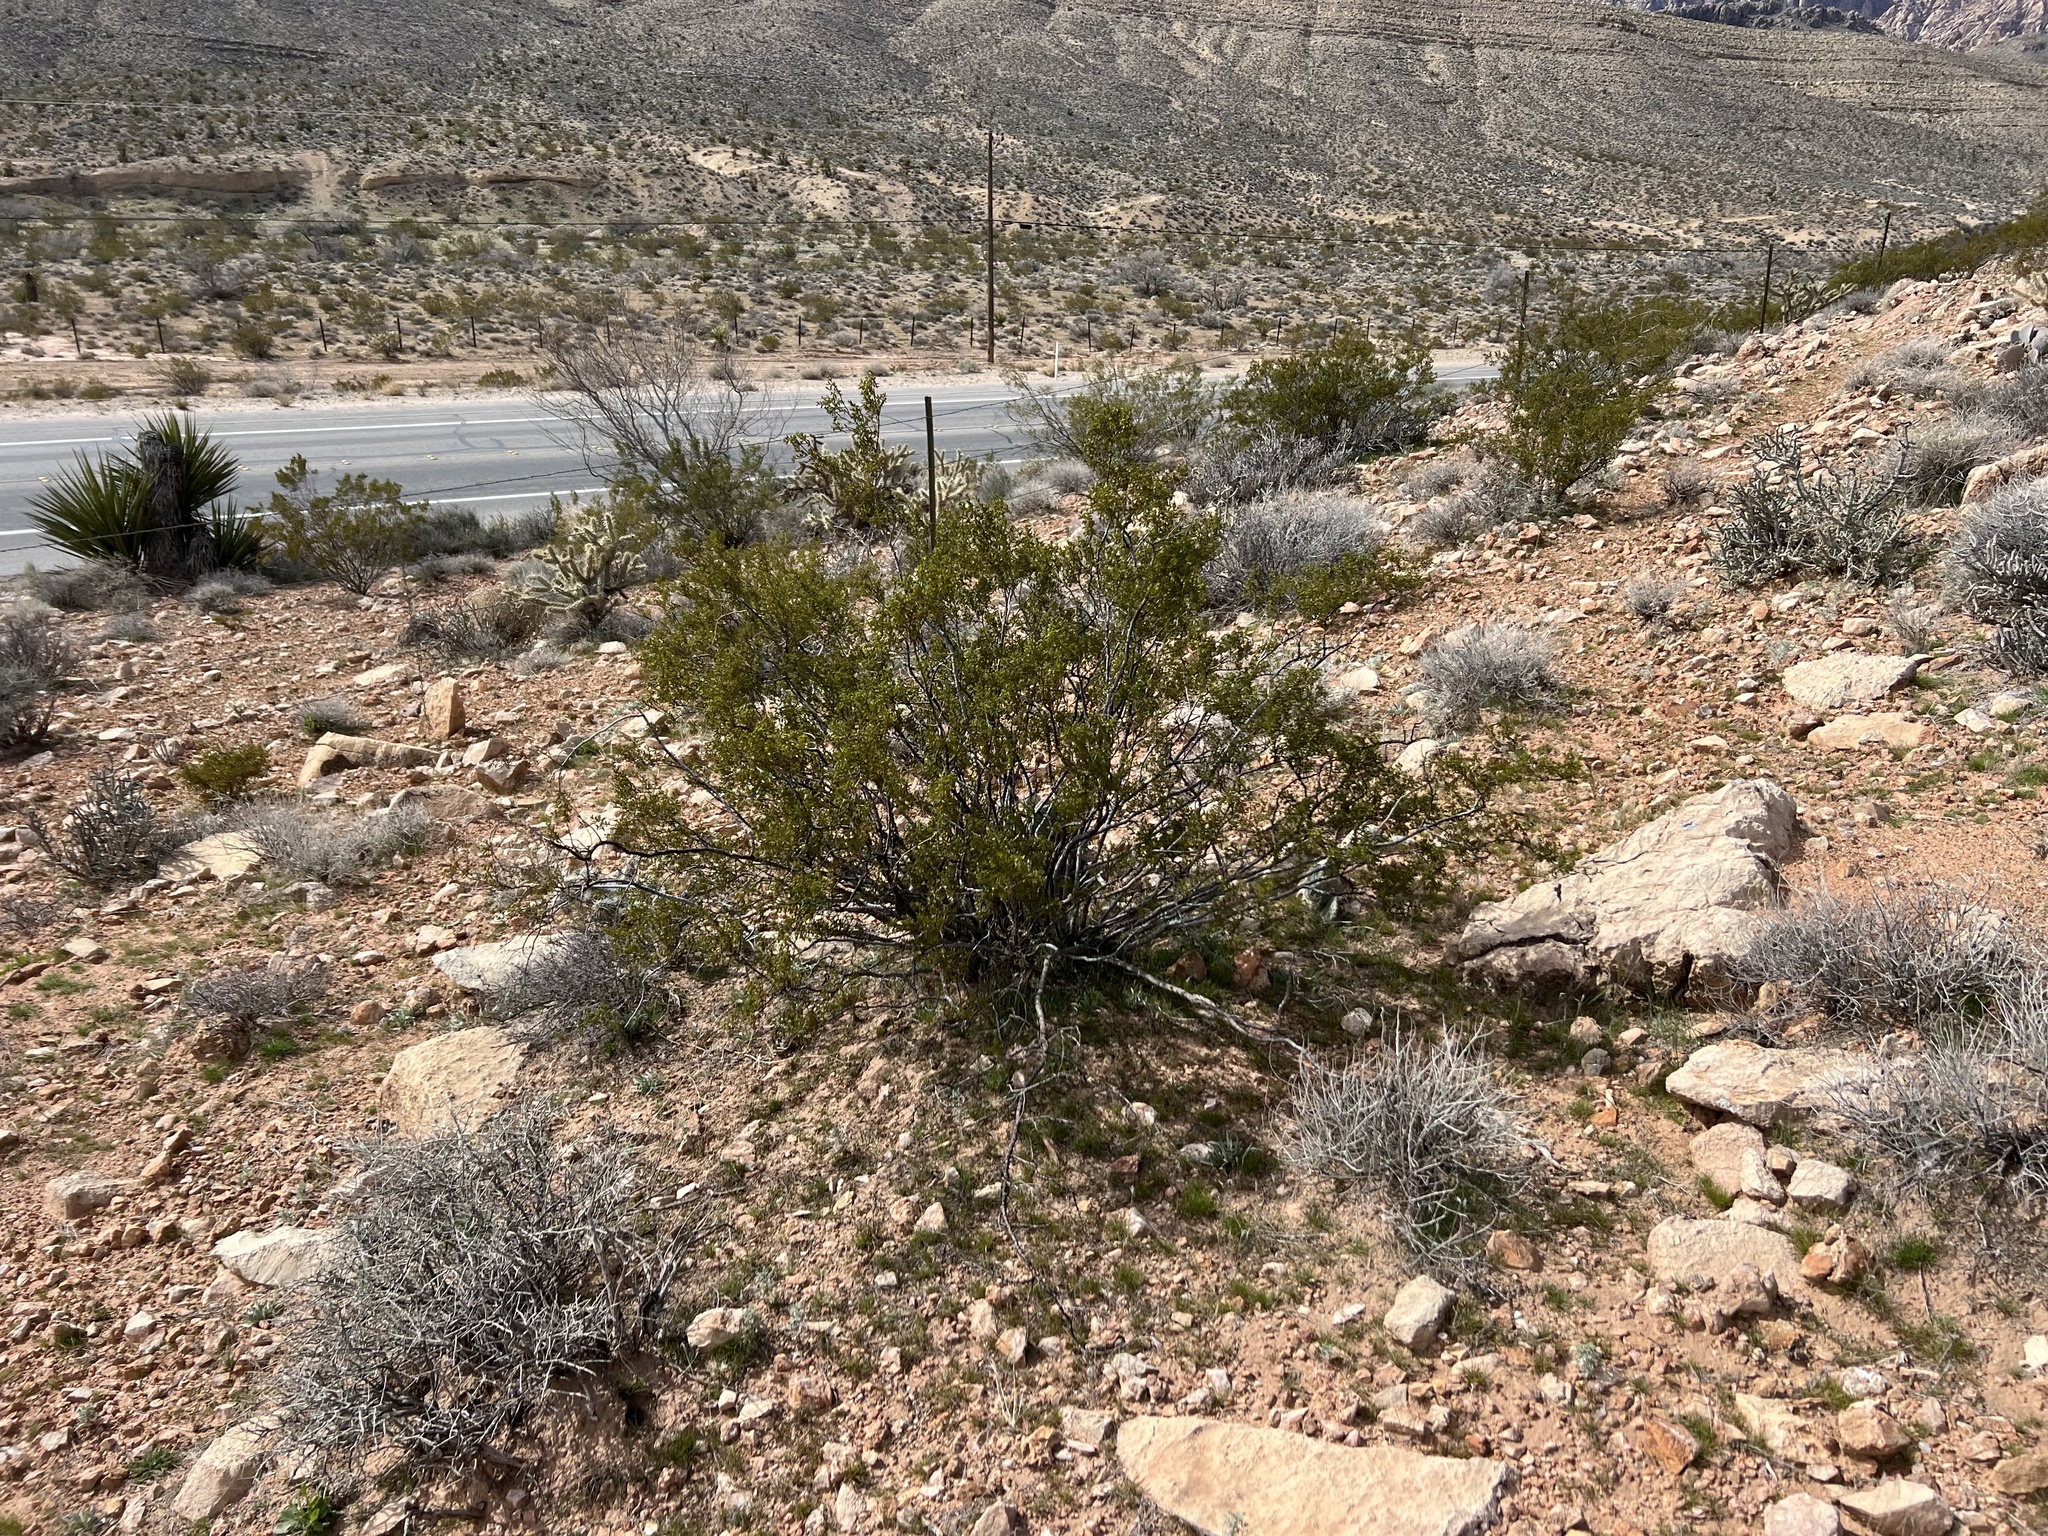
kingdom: Plantae
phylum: Tracheophyta
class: Magnoliopsida
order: Zygophyllales
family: Zygophyllaceae
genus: Larrea
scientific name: Larrea tridentata
